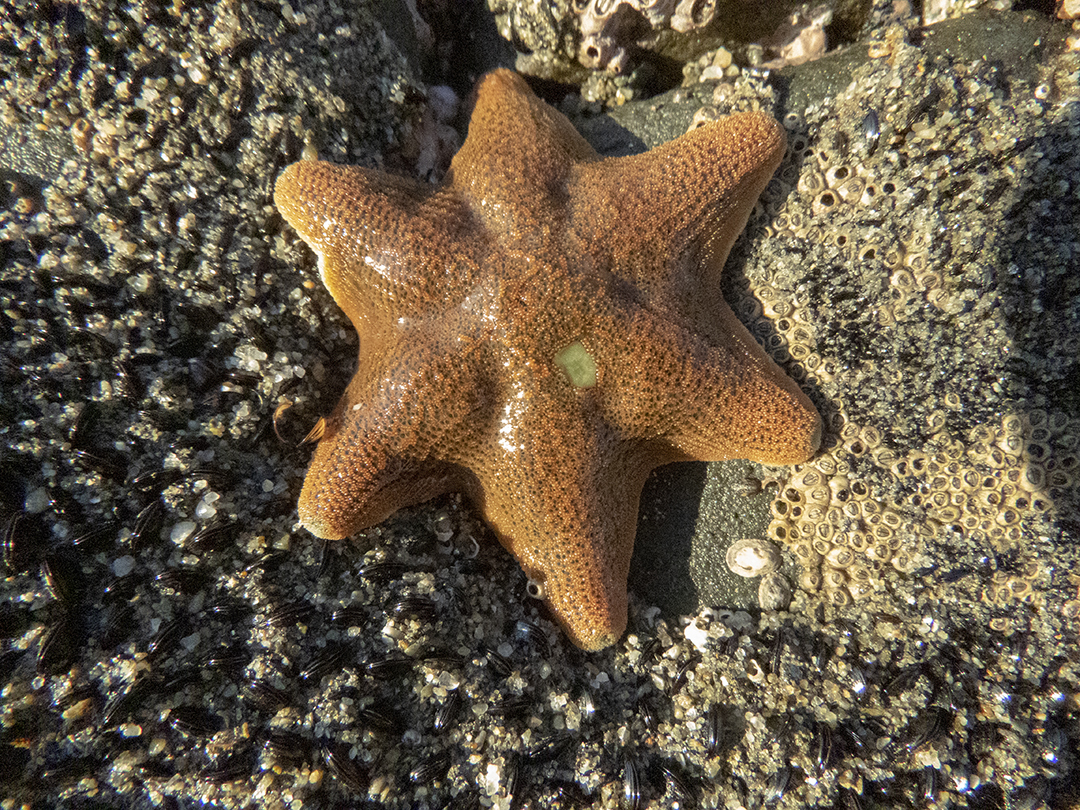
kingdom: Animalia
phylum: Echinodermata
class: Asteroidea
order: Valvatida
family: Asterinidae
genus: Patiriella
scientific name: Patiriella regularis
